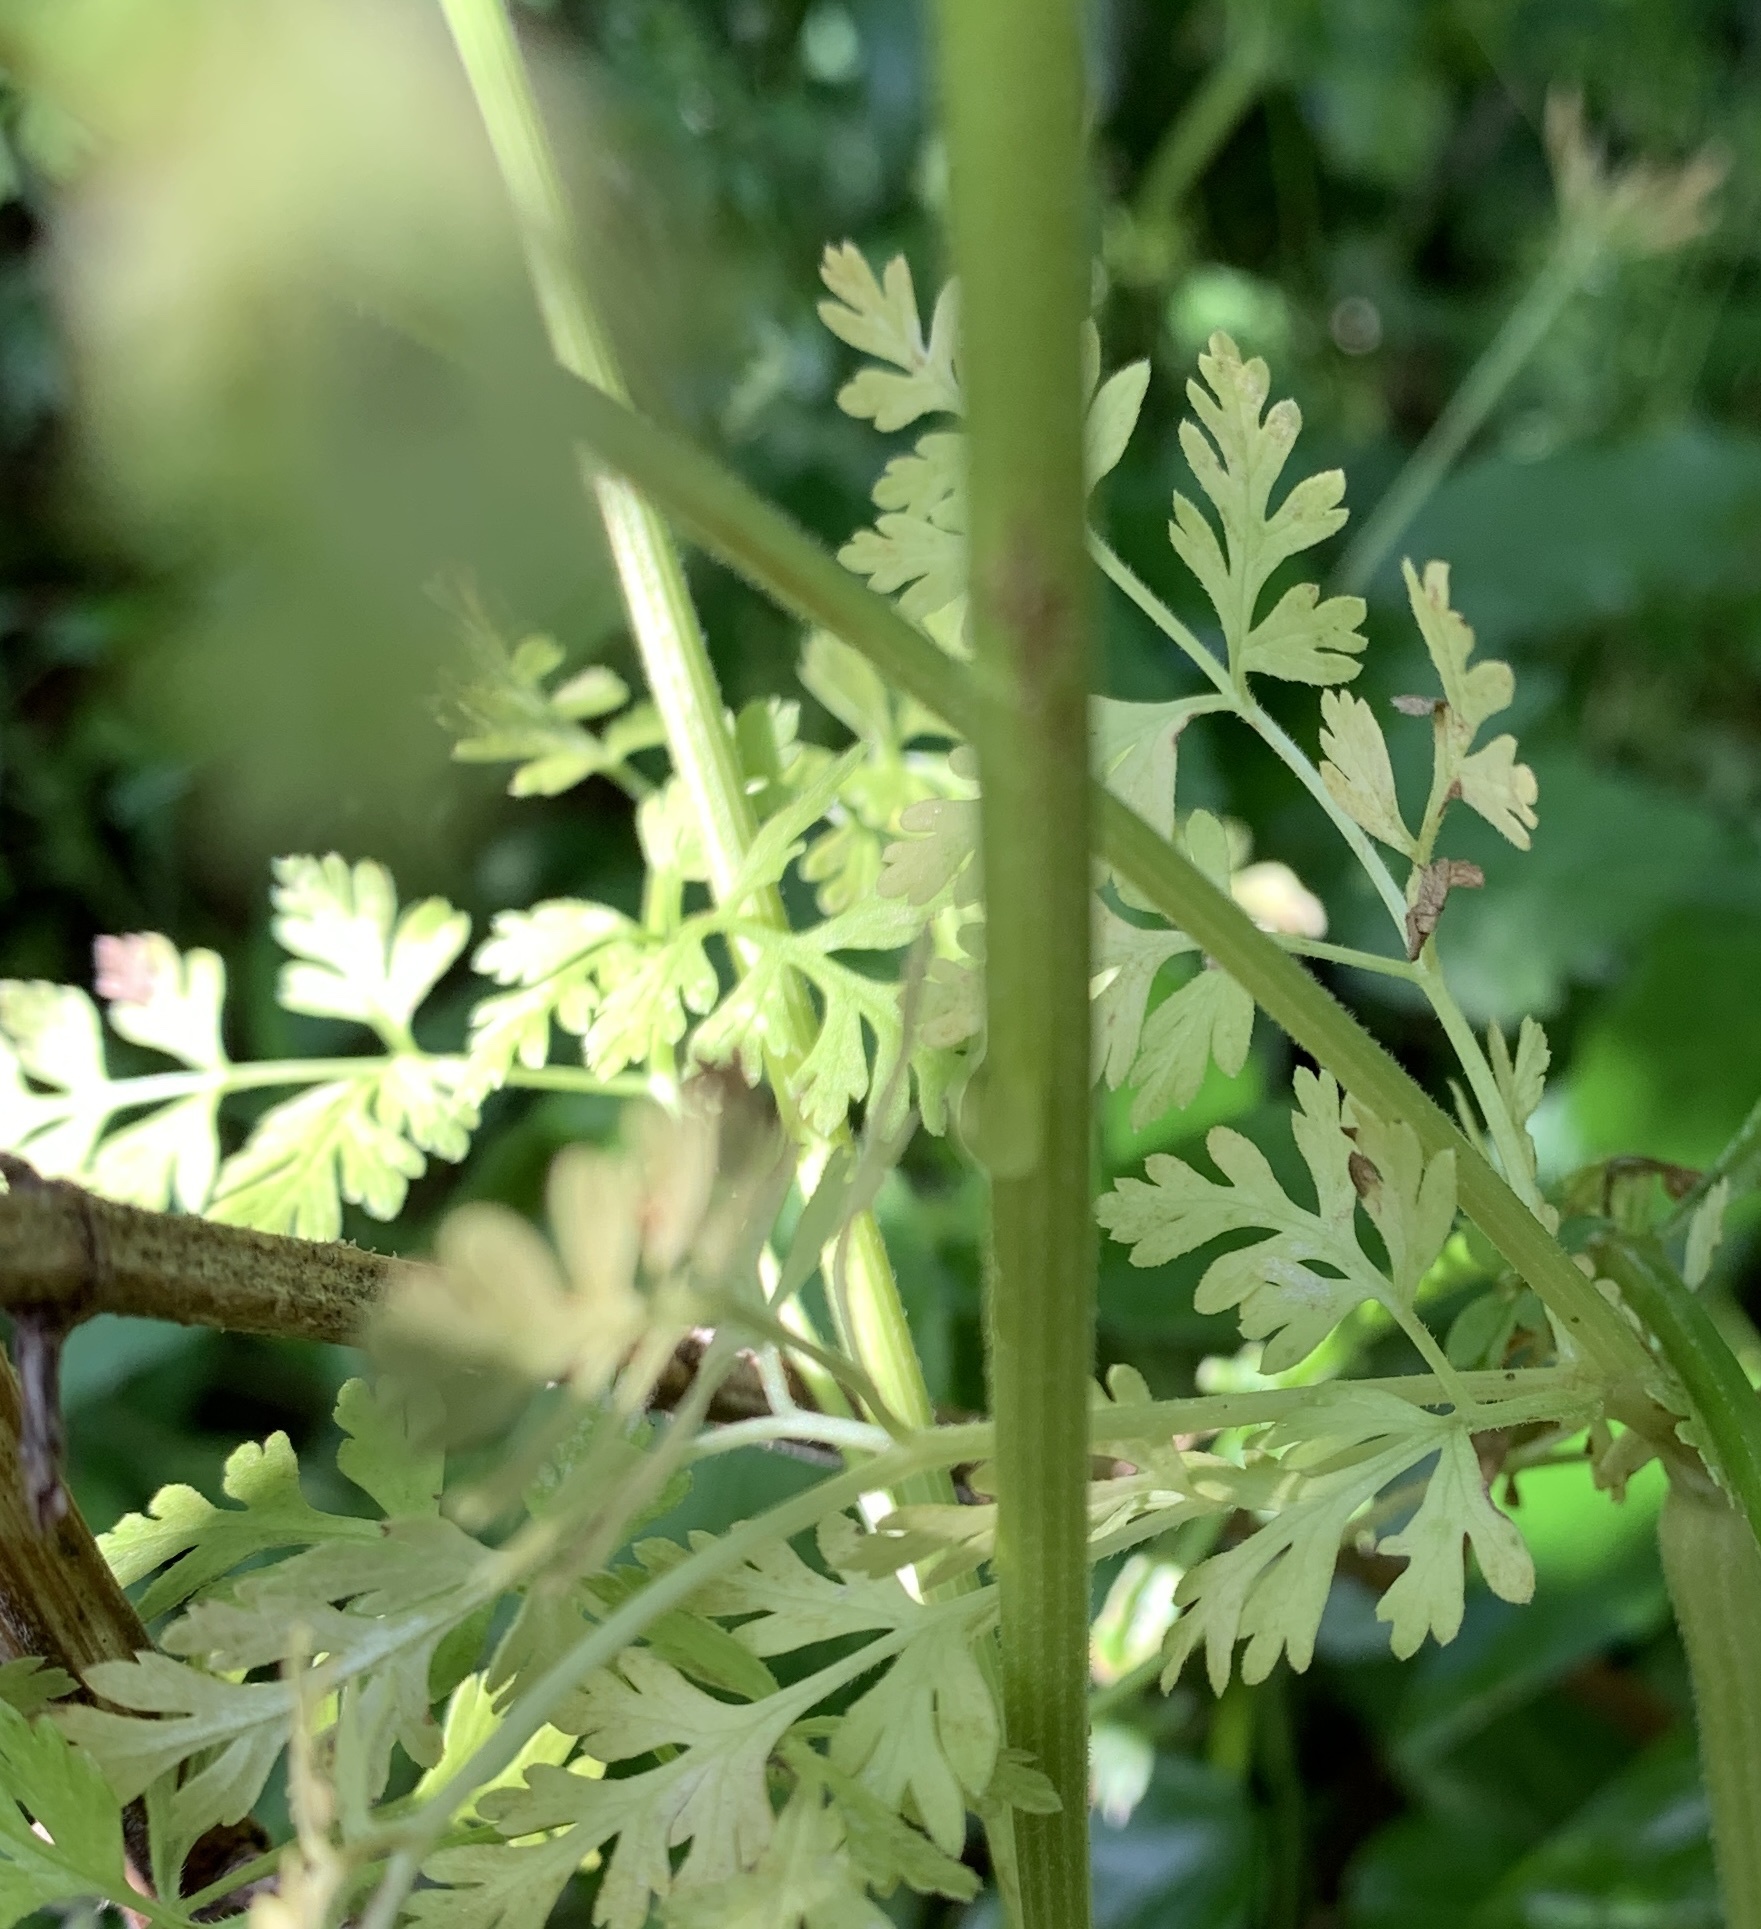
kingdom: Plantae
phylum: Tracheophyta
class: Magnoliopsida
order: Apiales
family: Apiaceae
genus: Chaerophyllum
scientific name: Chaerophyllum tainturieri
